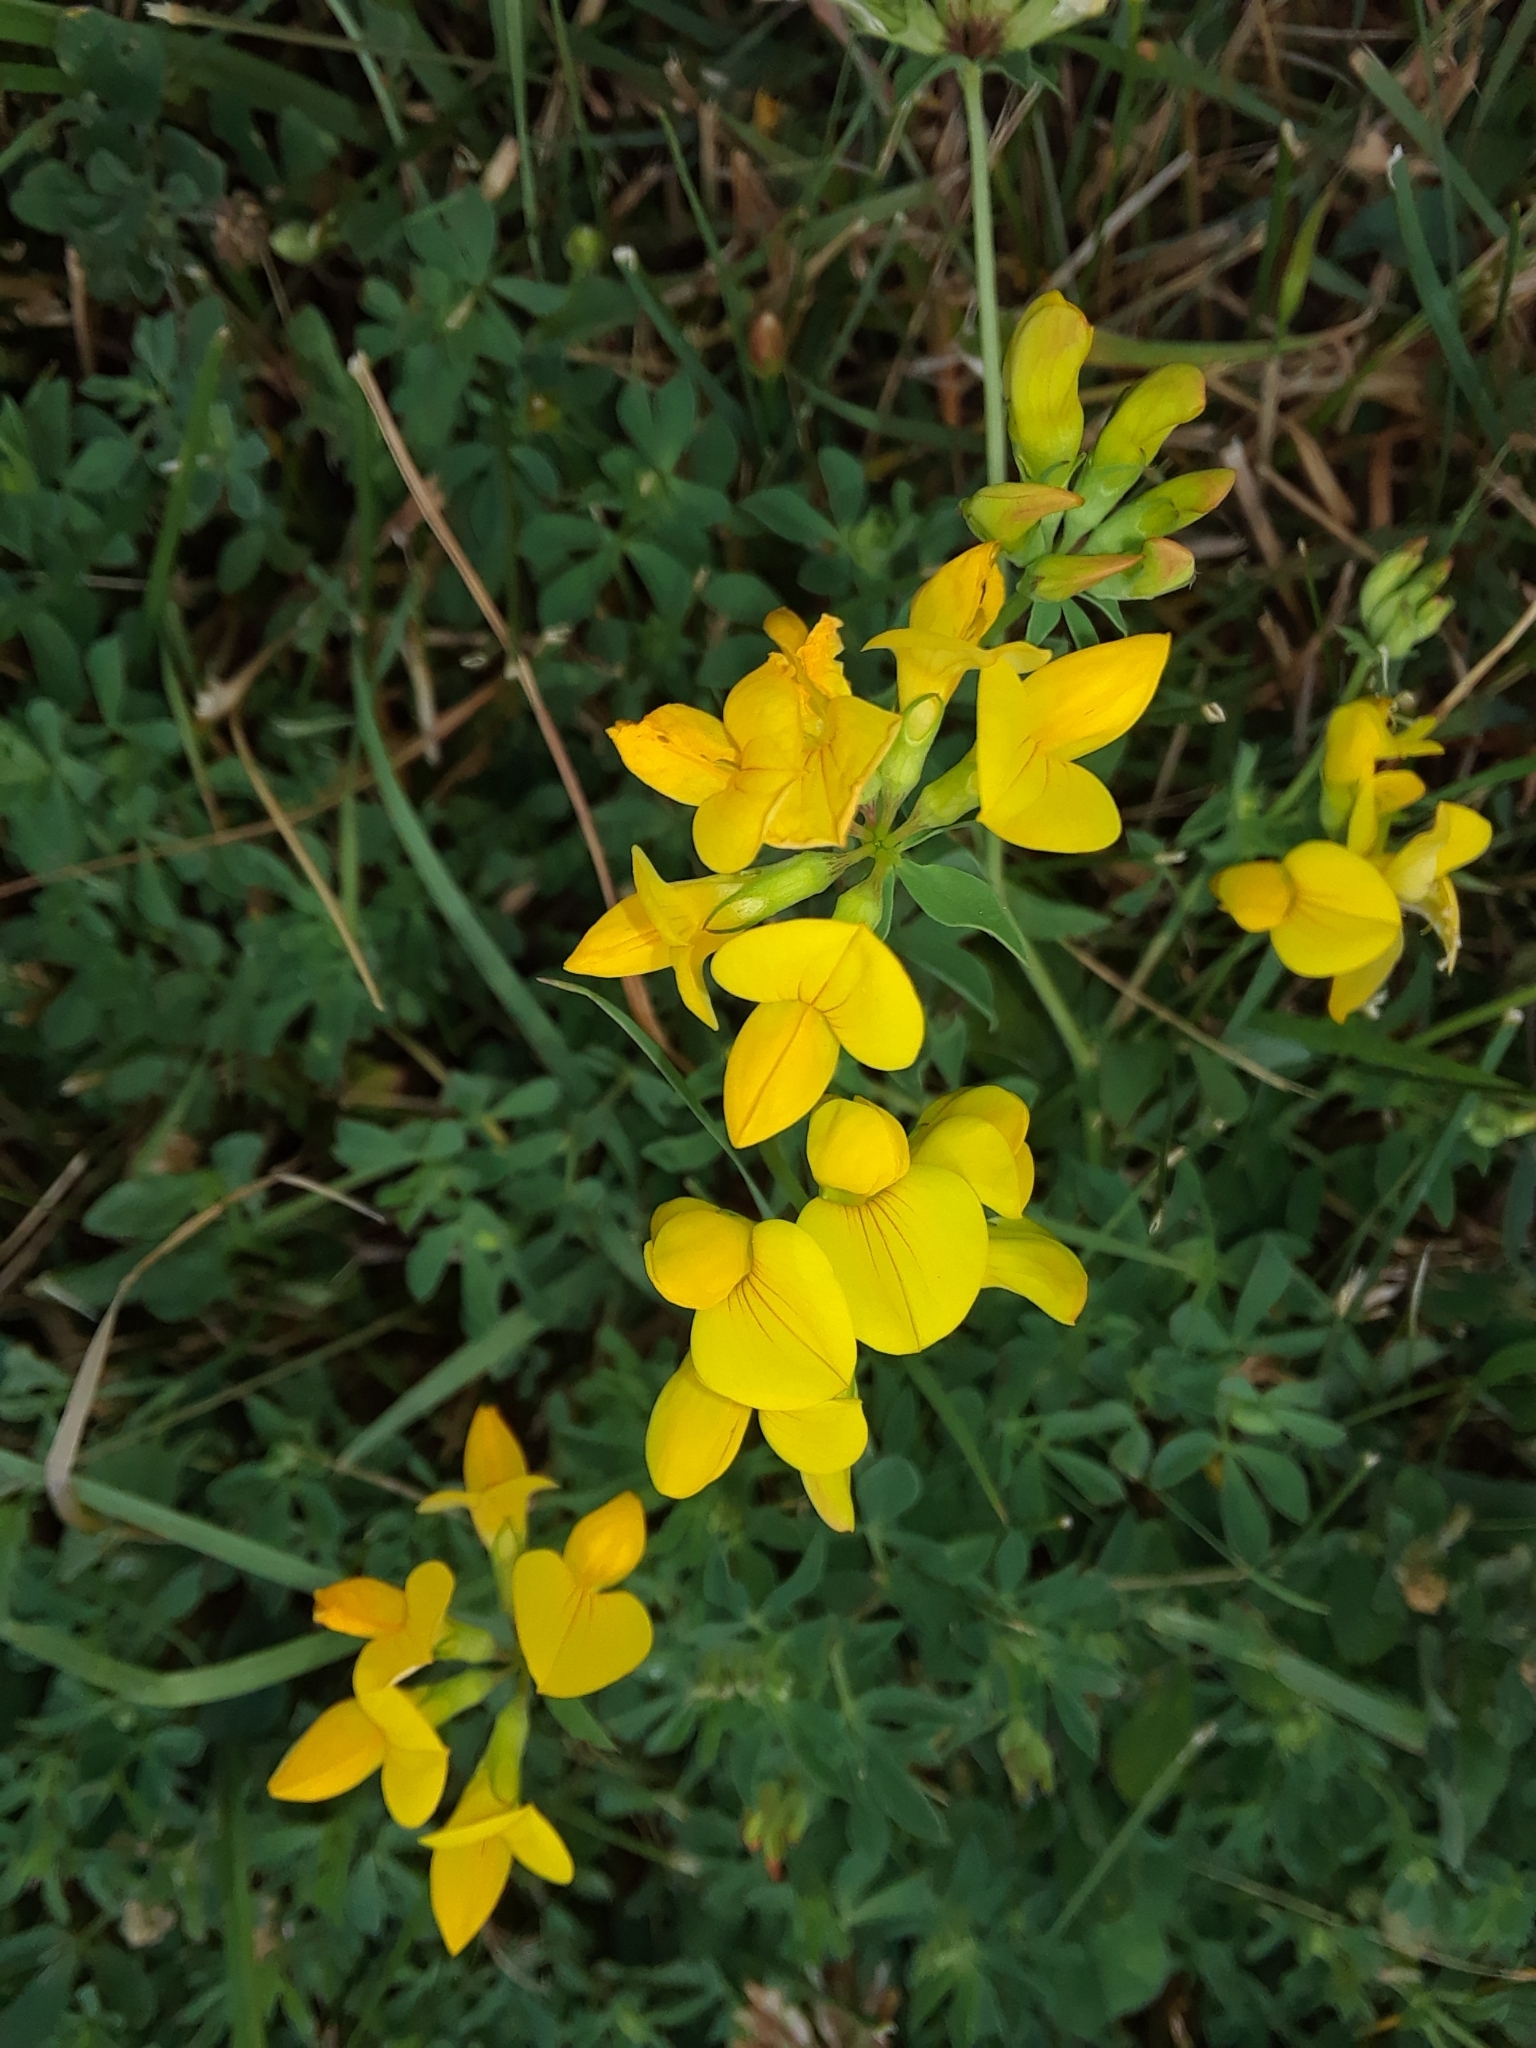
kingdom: Plantae
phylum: Tracheophyta
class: Magnoliopsida
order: Fabales
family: Fabaceae
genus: Lotus
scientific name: Lotus corniculatus
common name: Common bird's-foot-trefoil
